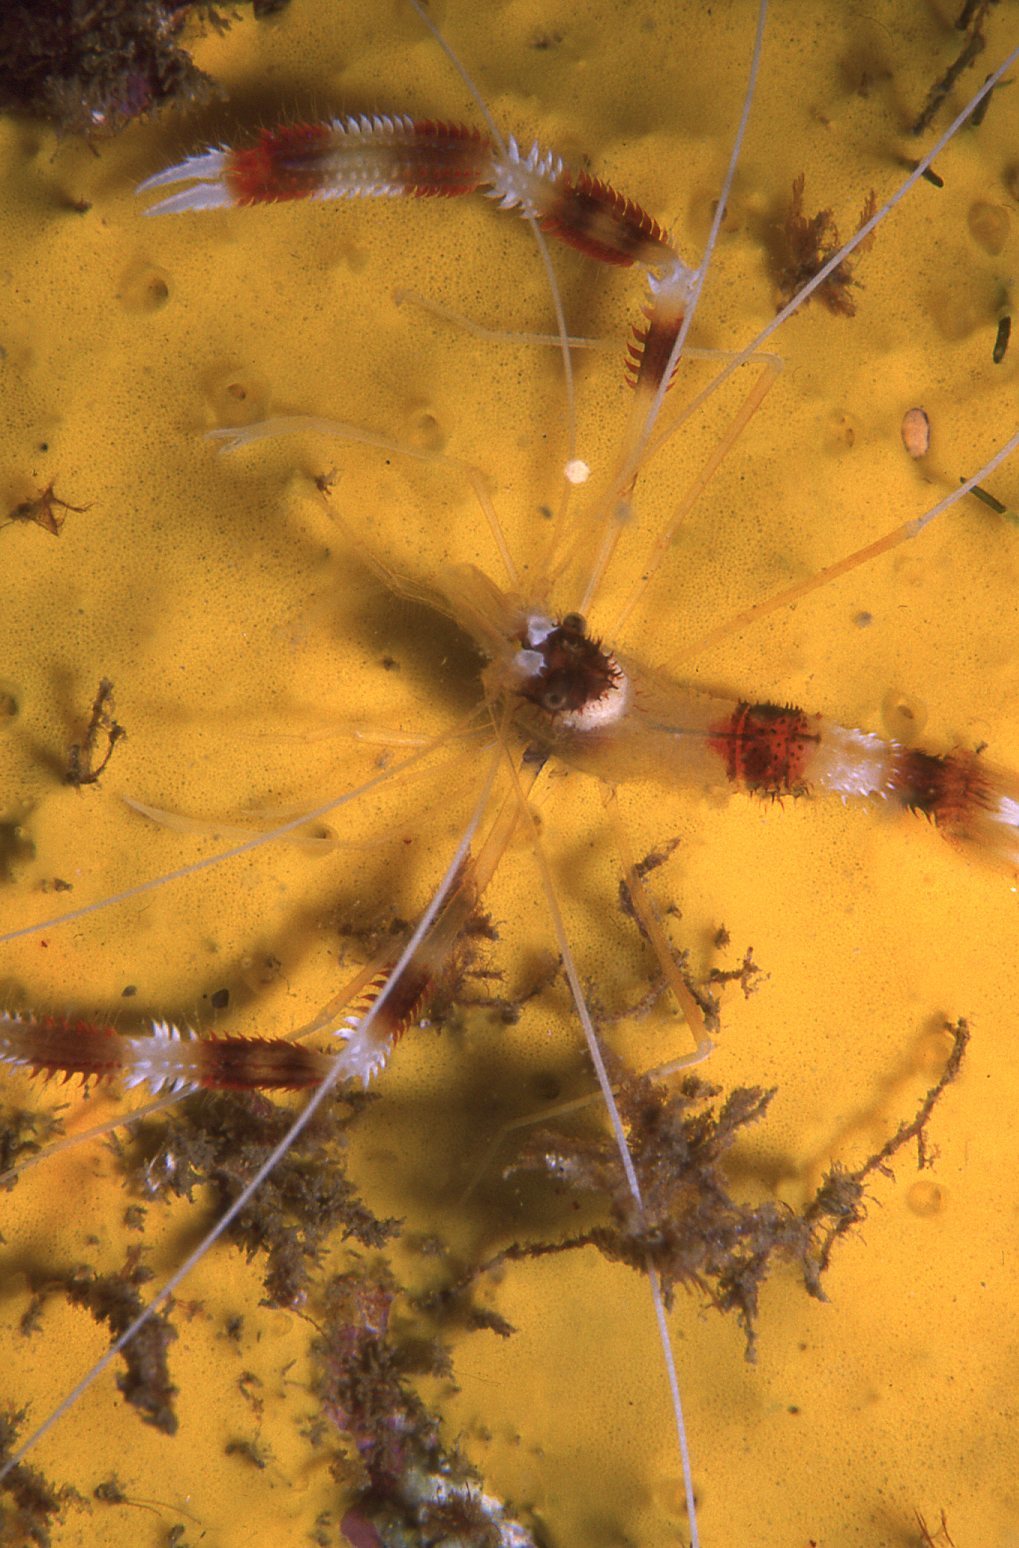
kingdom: Animalia
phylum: Arthropoda
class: Malacostraca
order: Decapoda
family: Stenopodidae
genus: Stenopus
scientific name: Stenopus hispidus
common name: Banded coral shrimp
